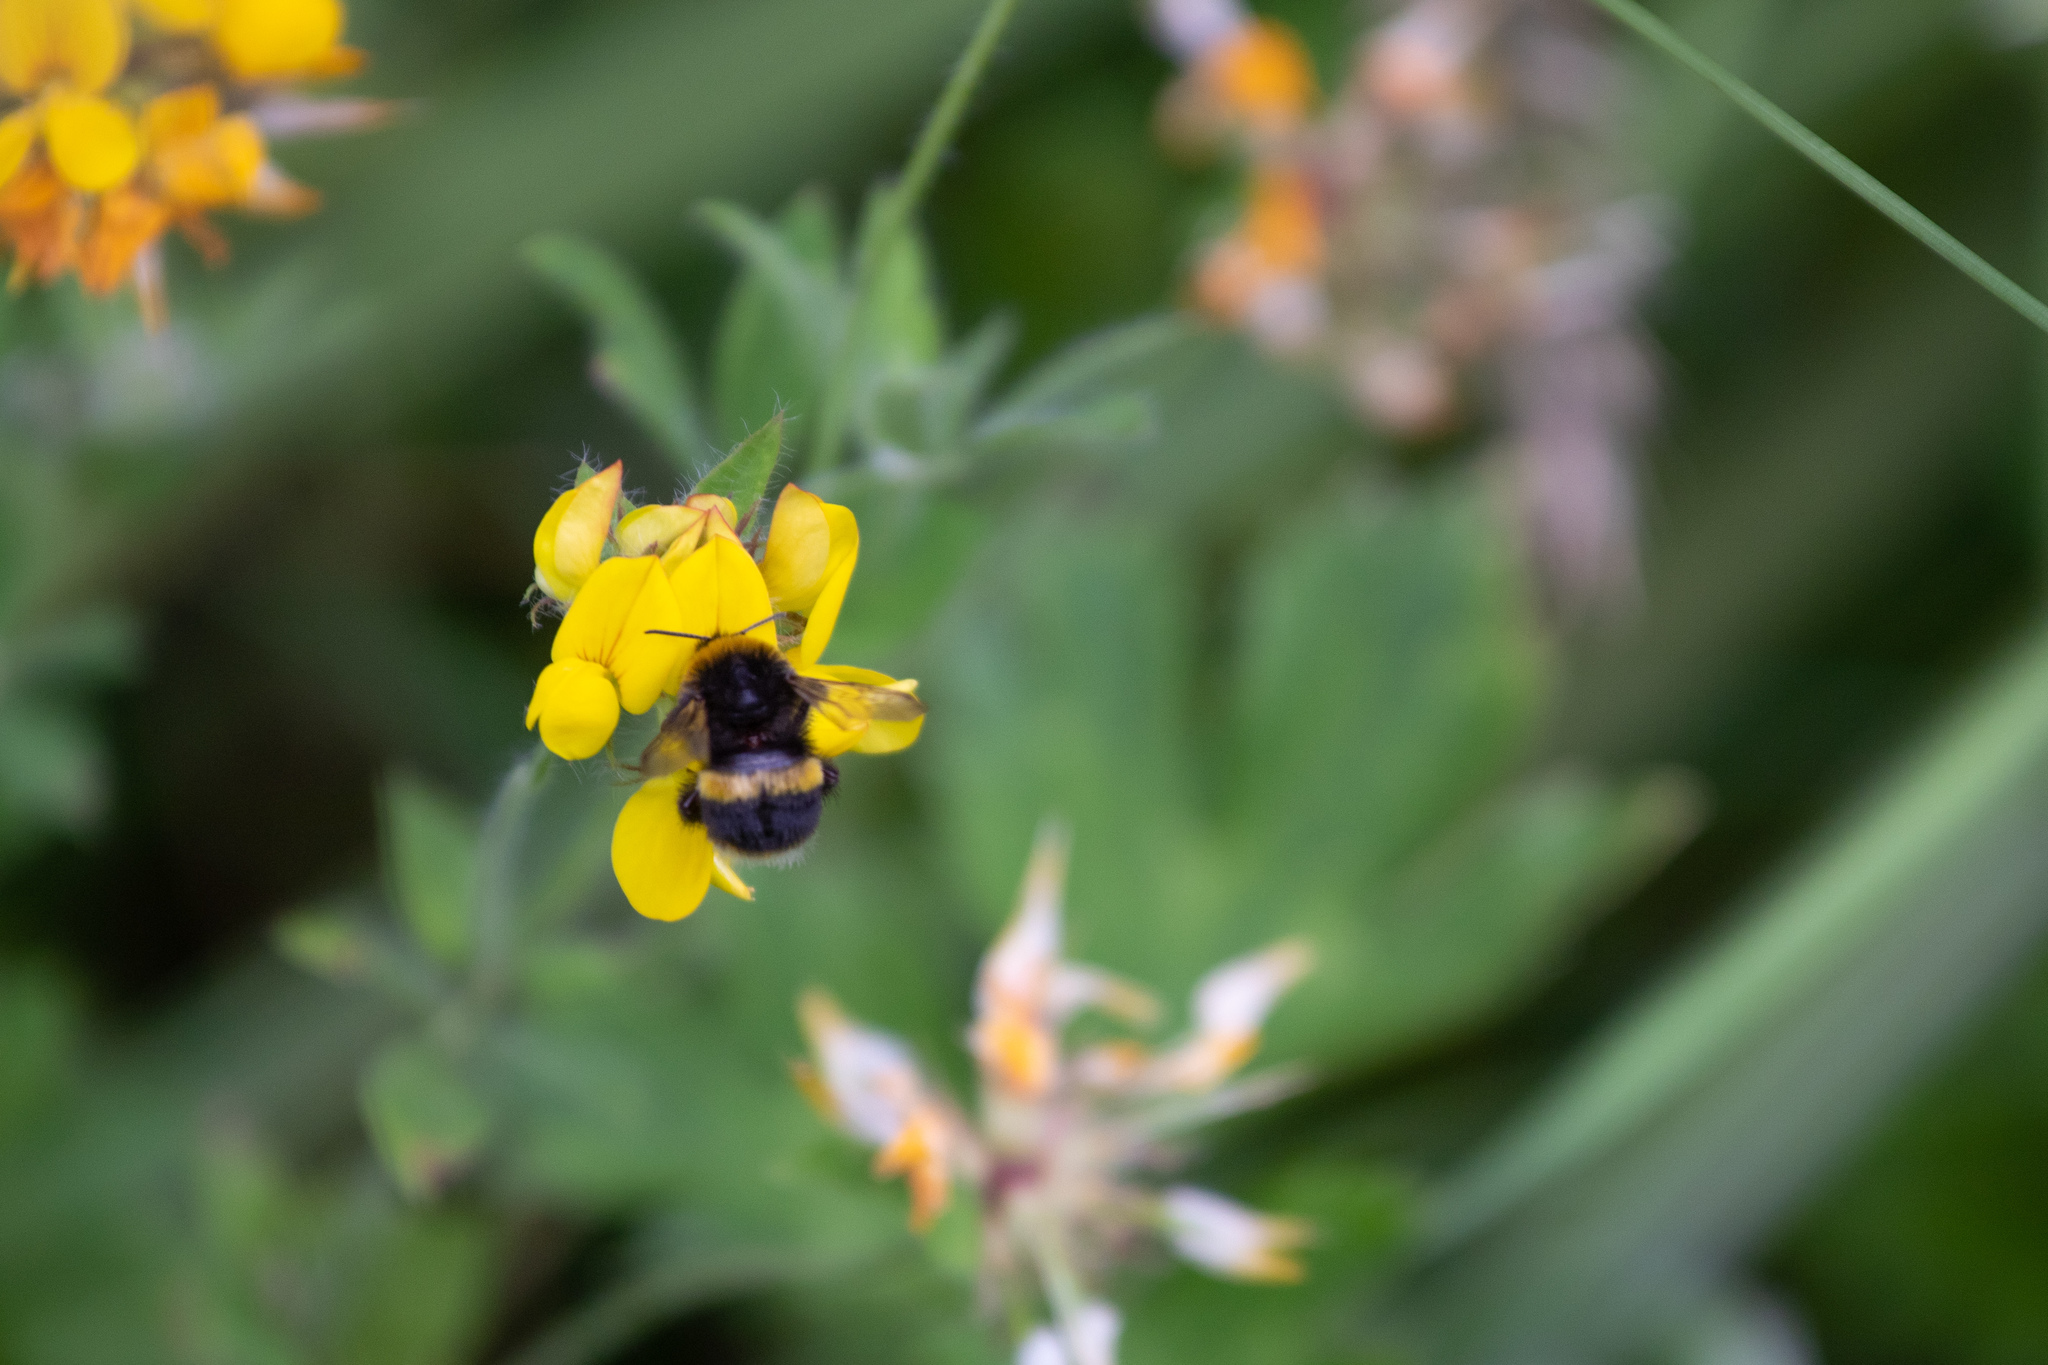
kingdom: Animalia
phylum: Arthropoda
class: Insecta
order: Hymenoptera
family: Apidae
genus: Bombus
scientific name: Bombus terrestris
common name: Buff-tailed bumblebee
